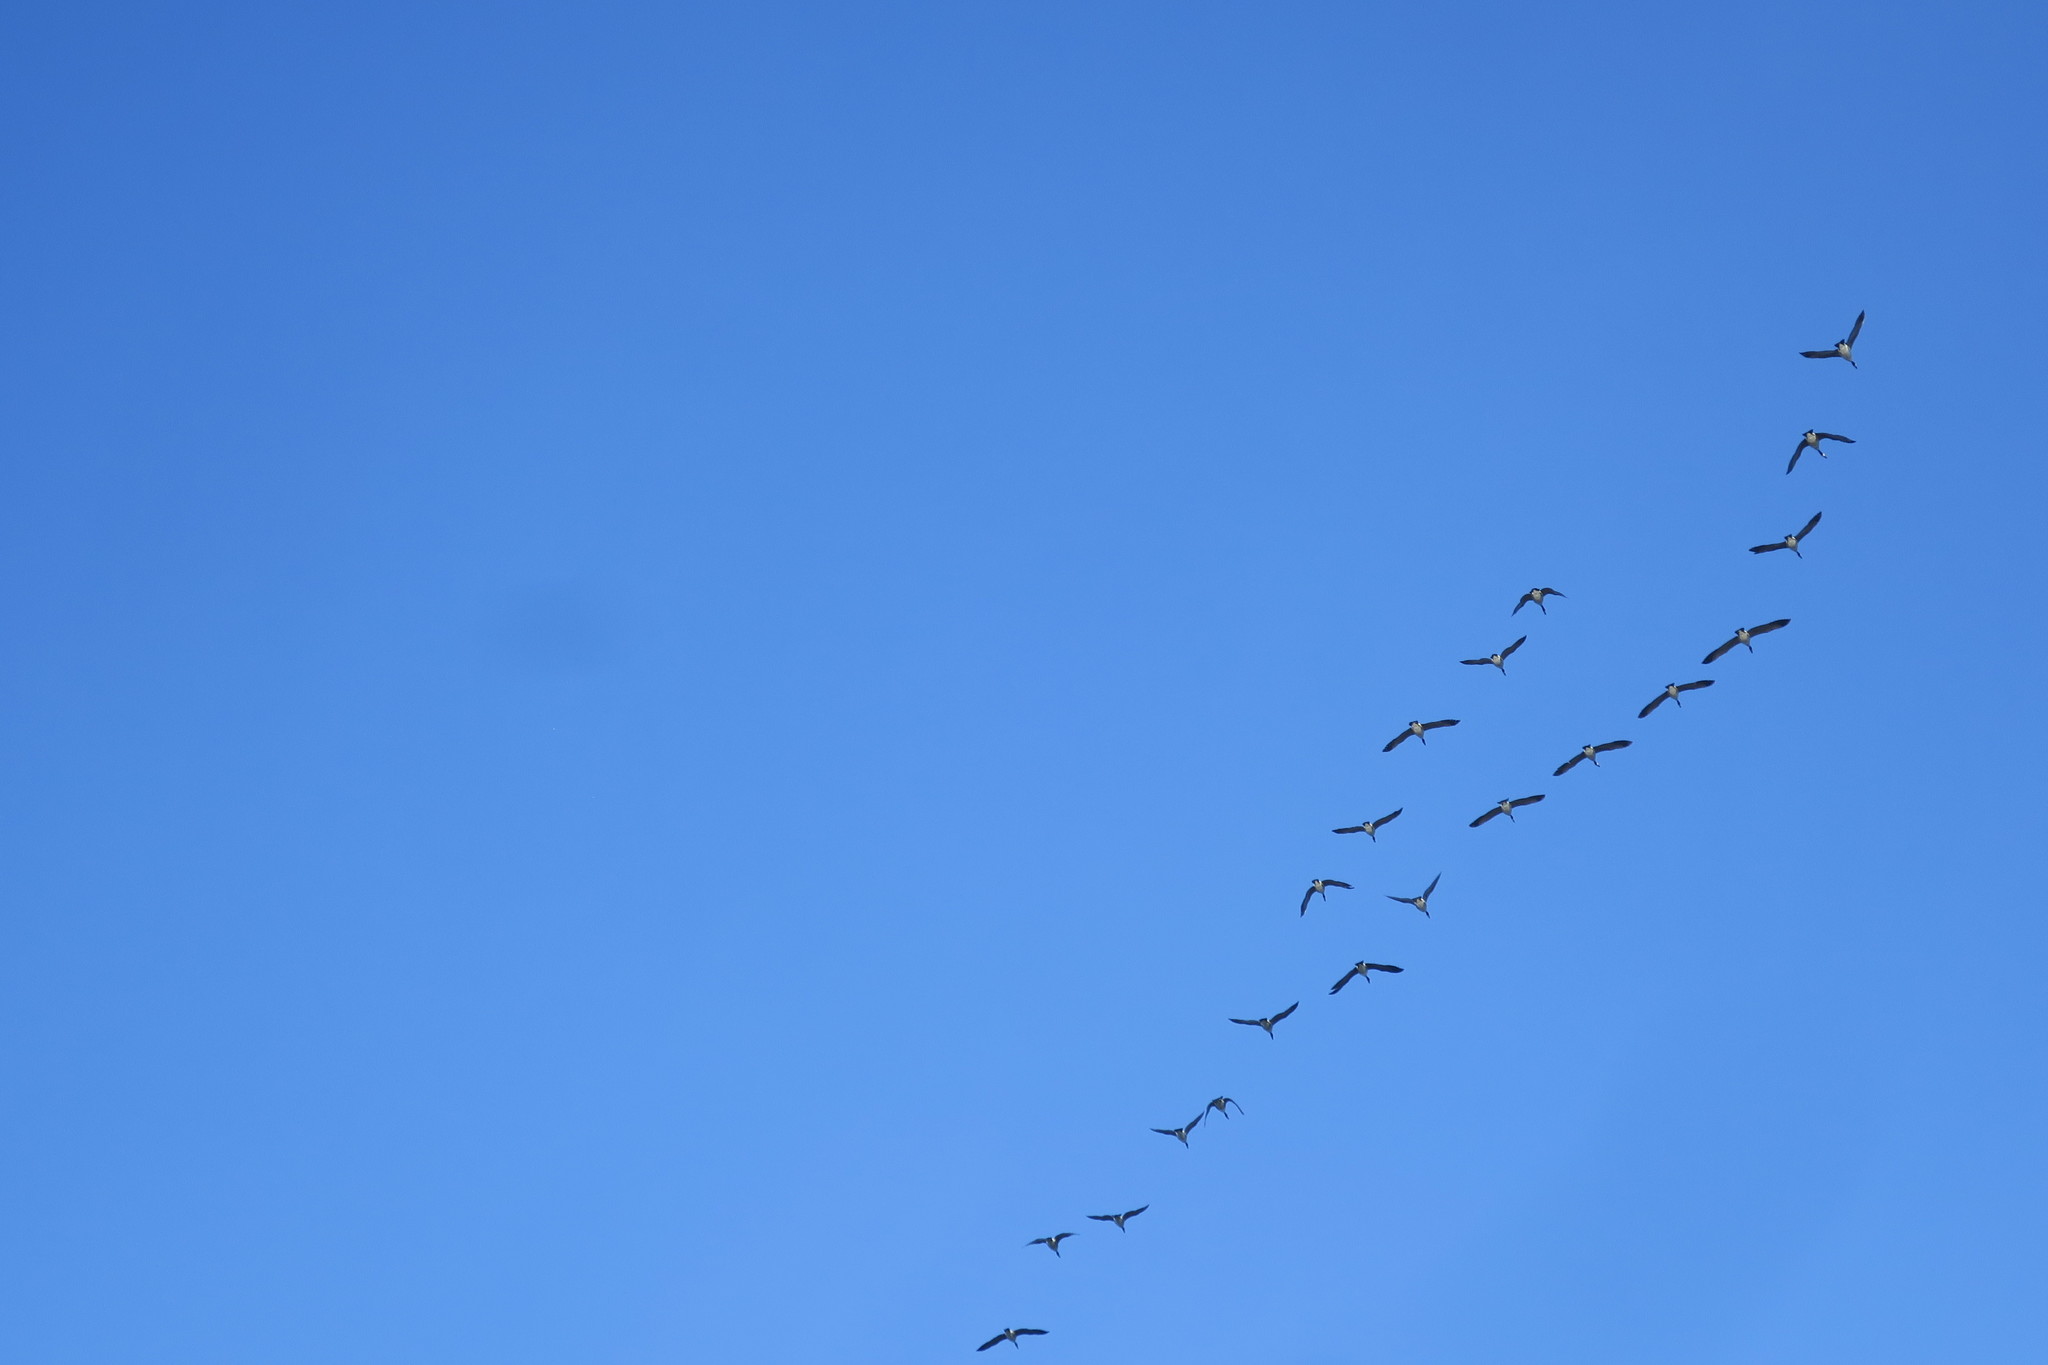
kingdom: Animalia
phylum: Chordata
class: Aves
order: Anseriformes
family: Anatidae
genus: Branta
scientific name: Branta canadensis
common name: Canada goose
